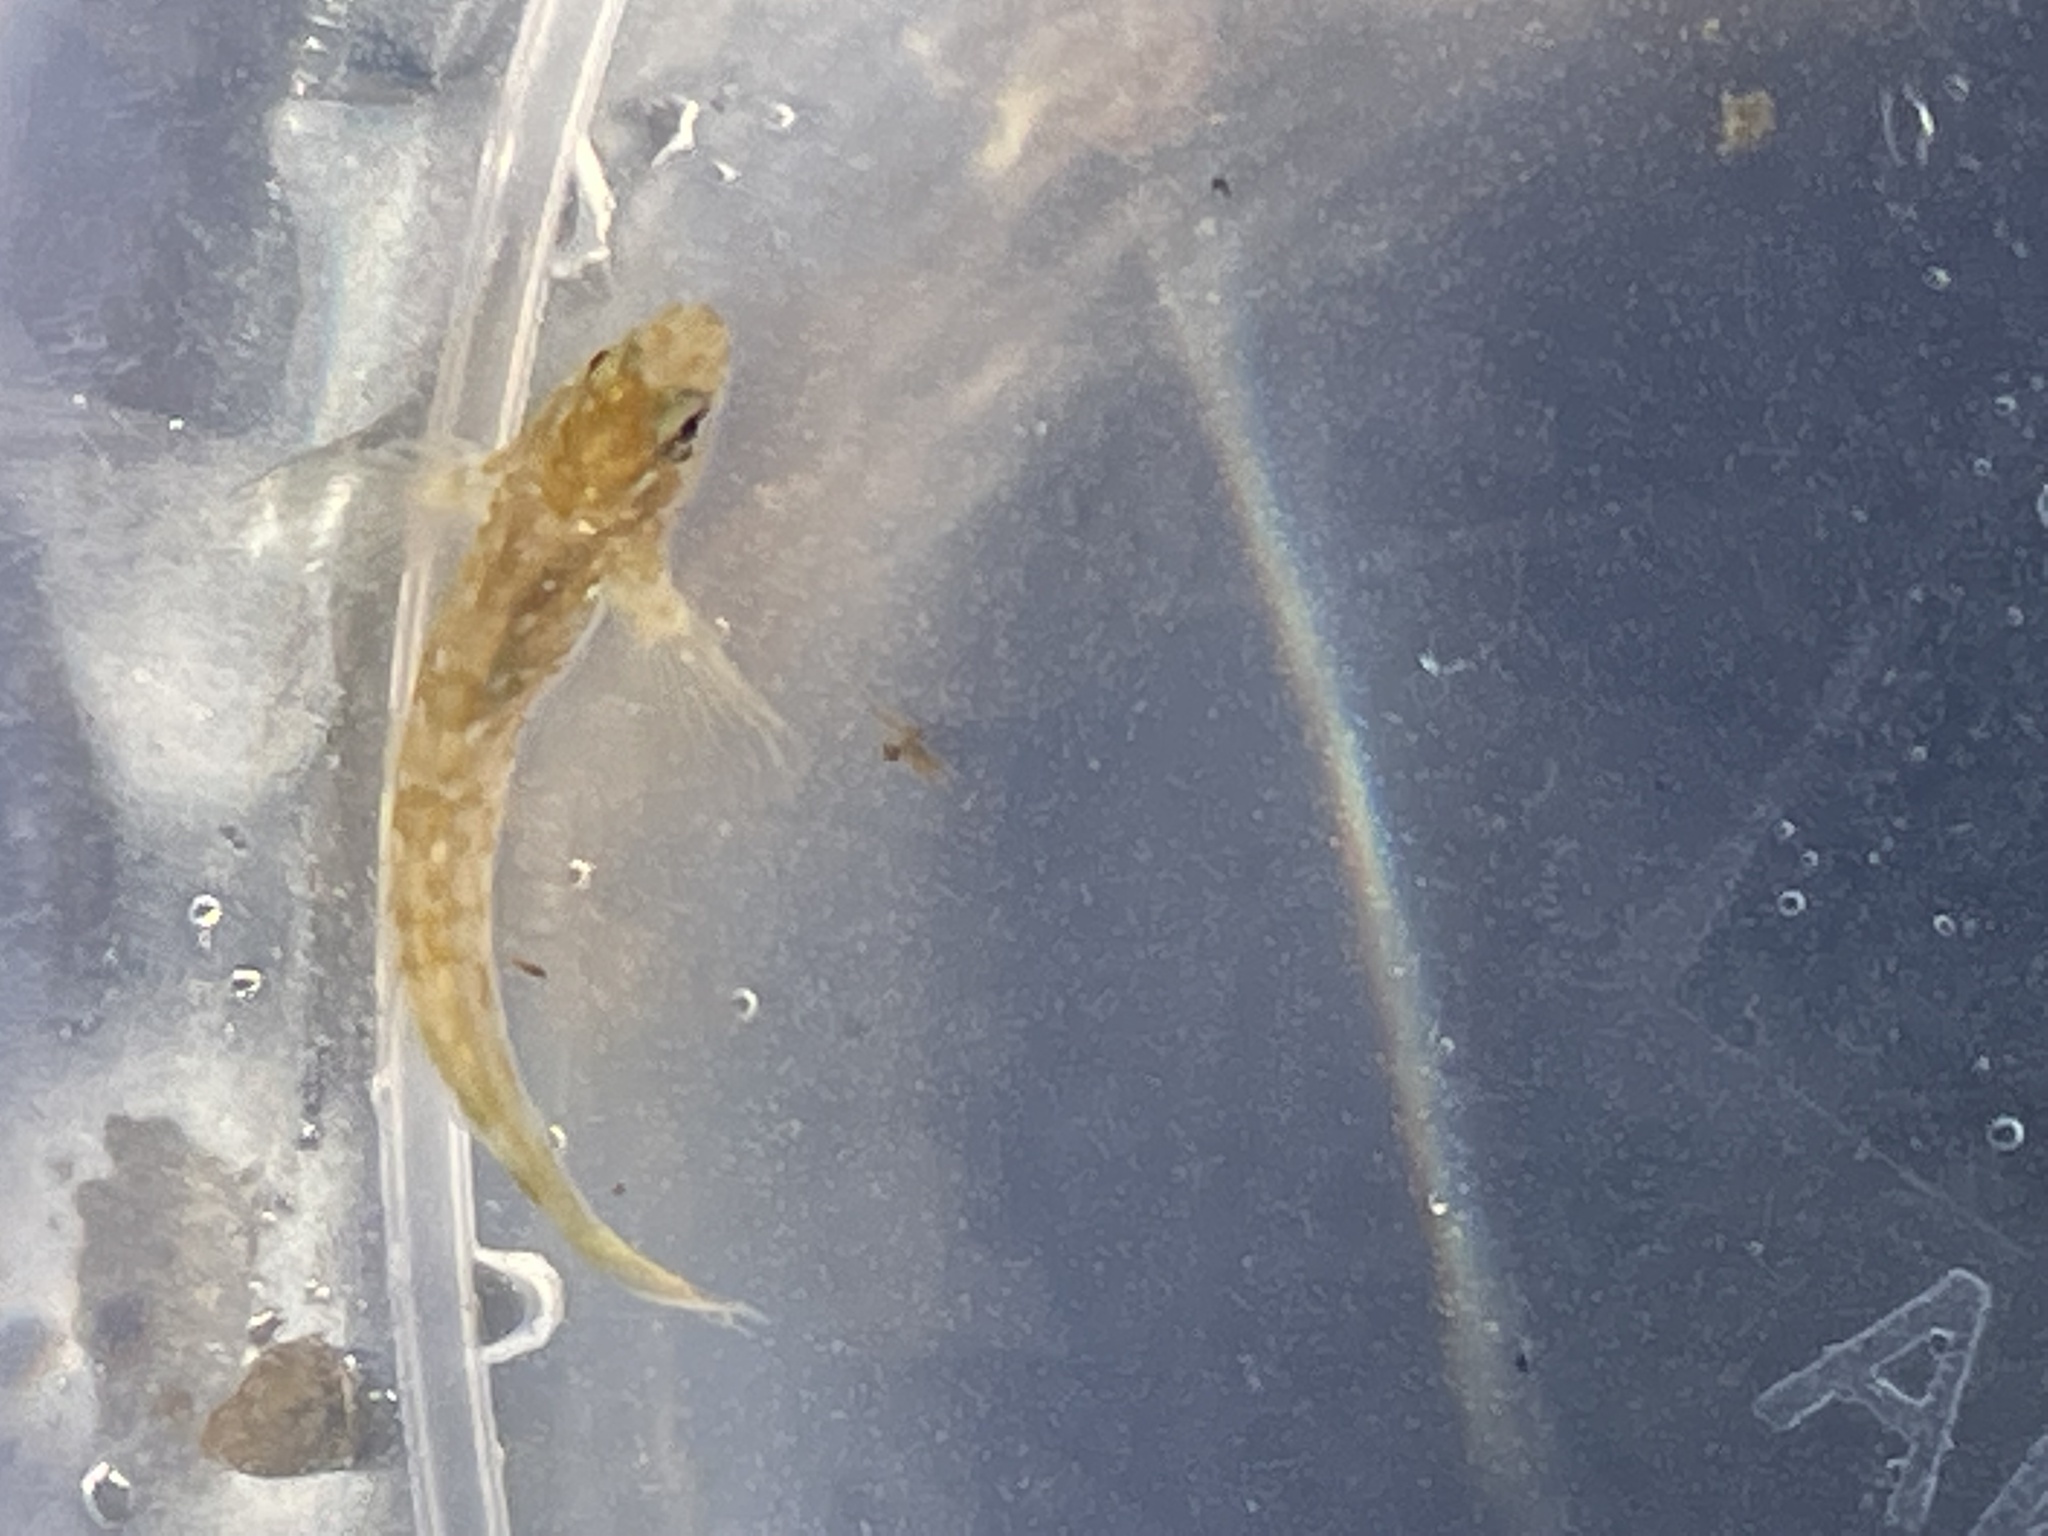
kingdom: Animalia
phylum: Chordata
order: Perciformes
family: Blenniidae
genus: Lipophrys
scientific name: Lipophrys pholis
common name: Shanny
